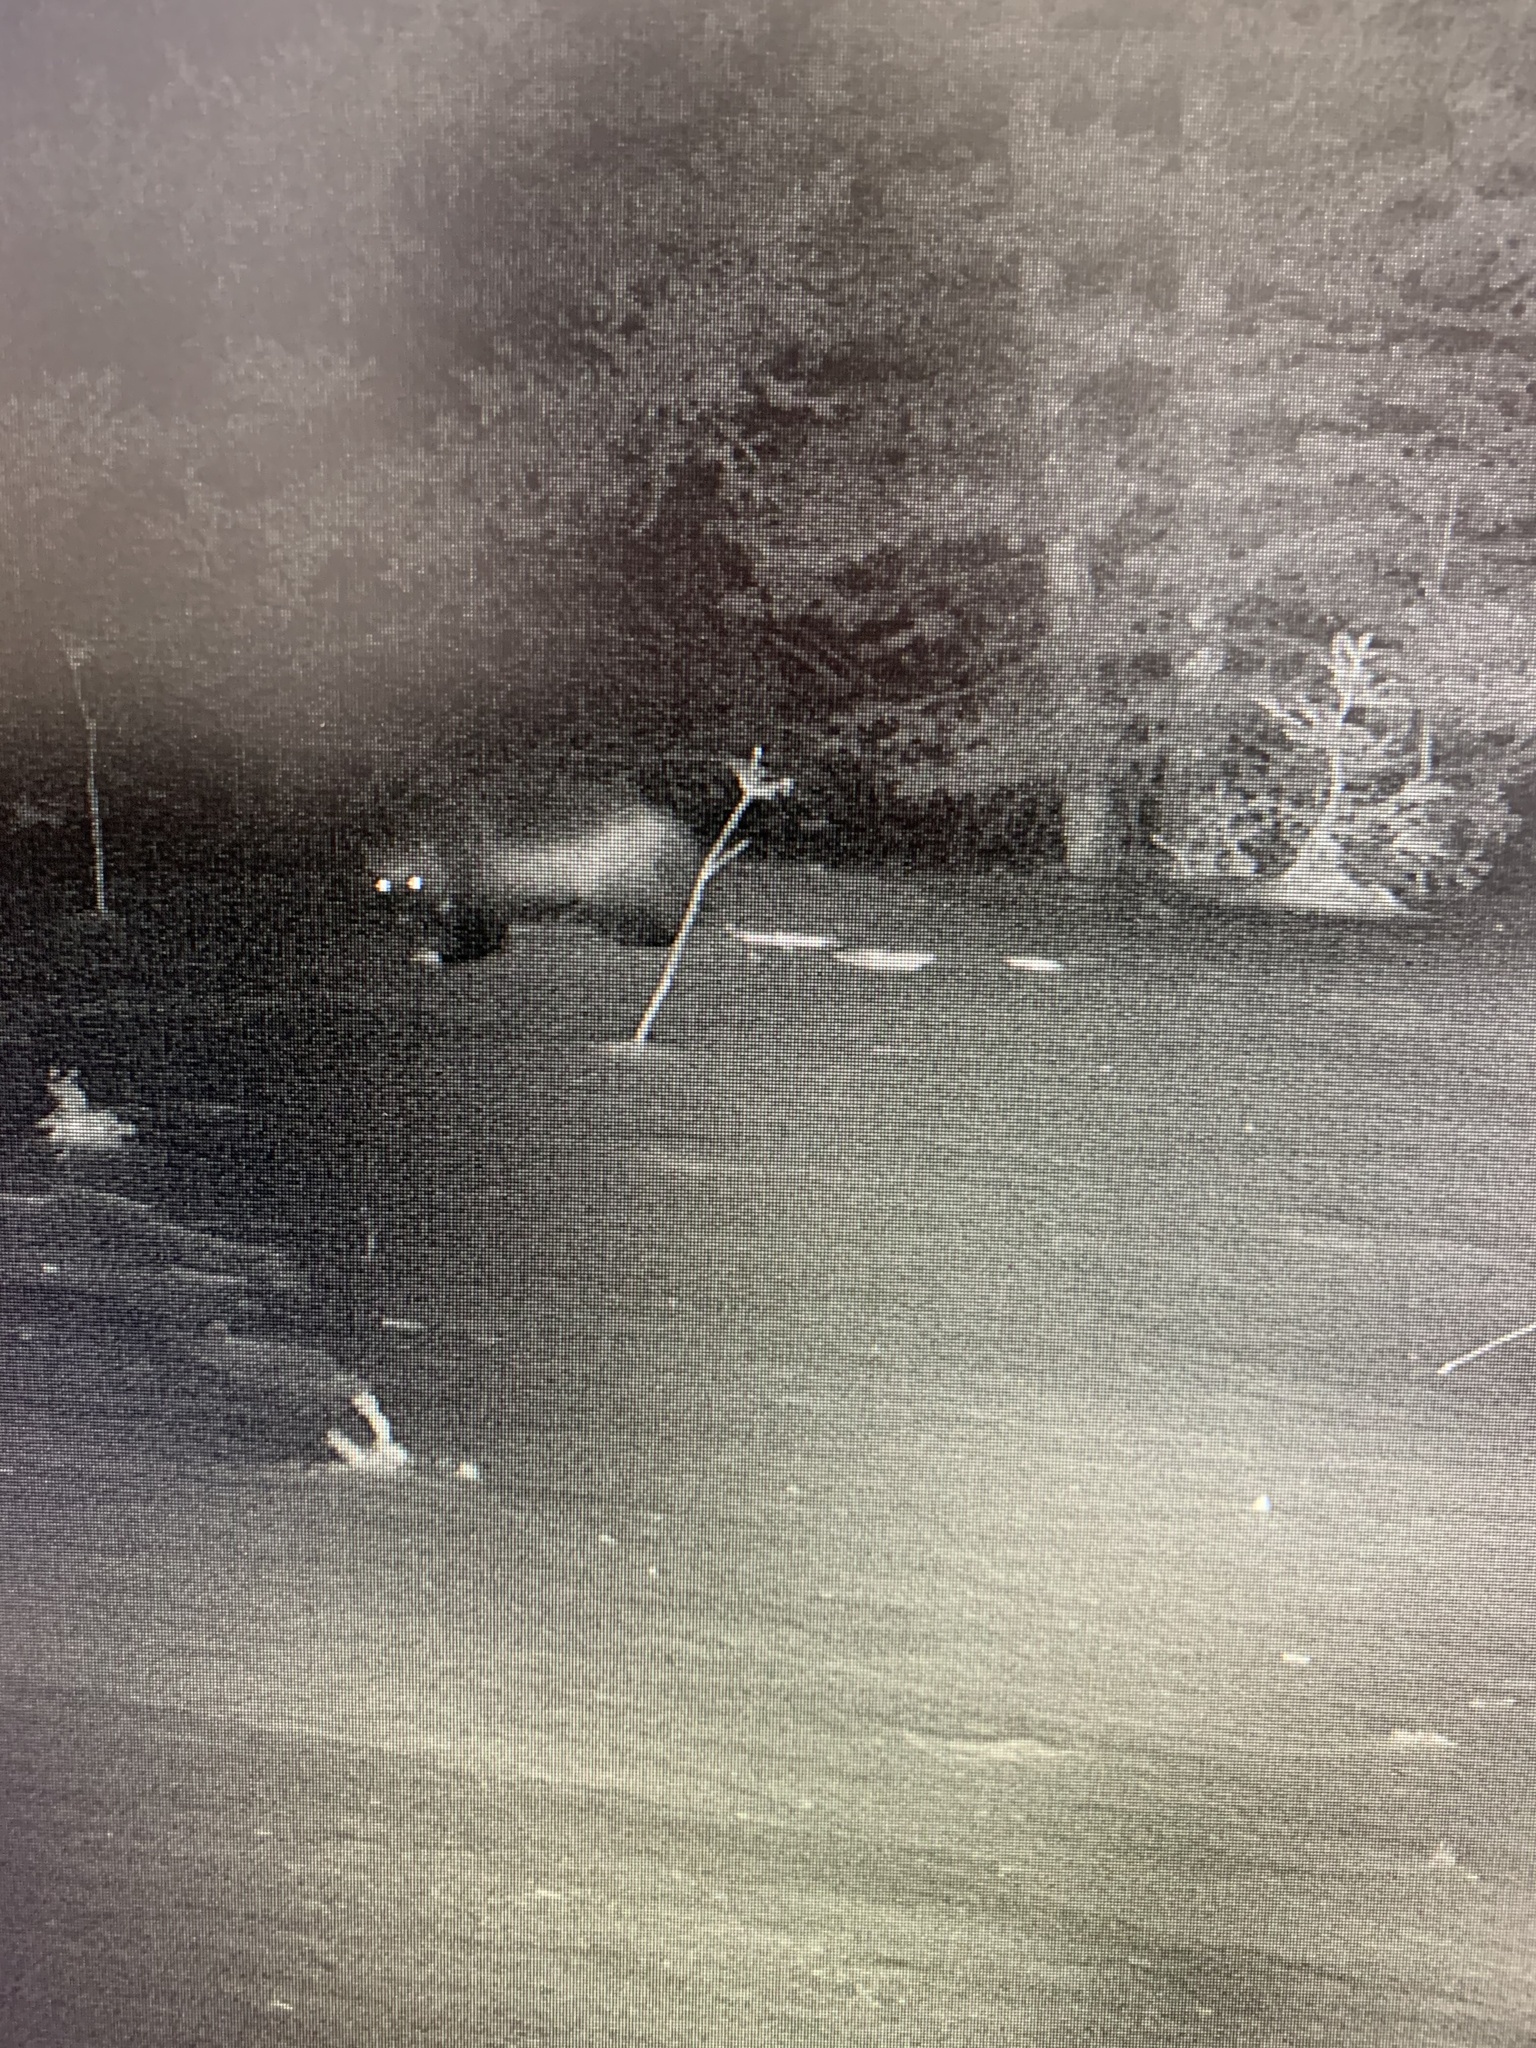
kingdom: Animalia
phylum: Chordata
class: Mammalia
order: Carnivora
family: Mustelidae
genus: Gulo
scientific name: Gulo gulo
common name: Wolverine
